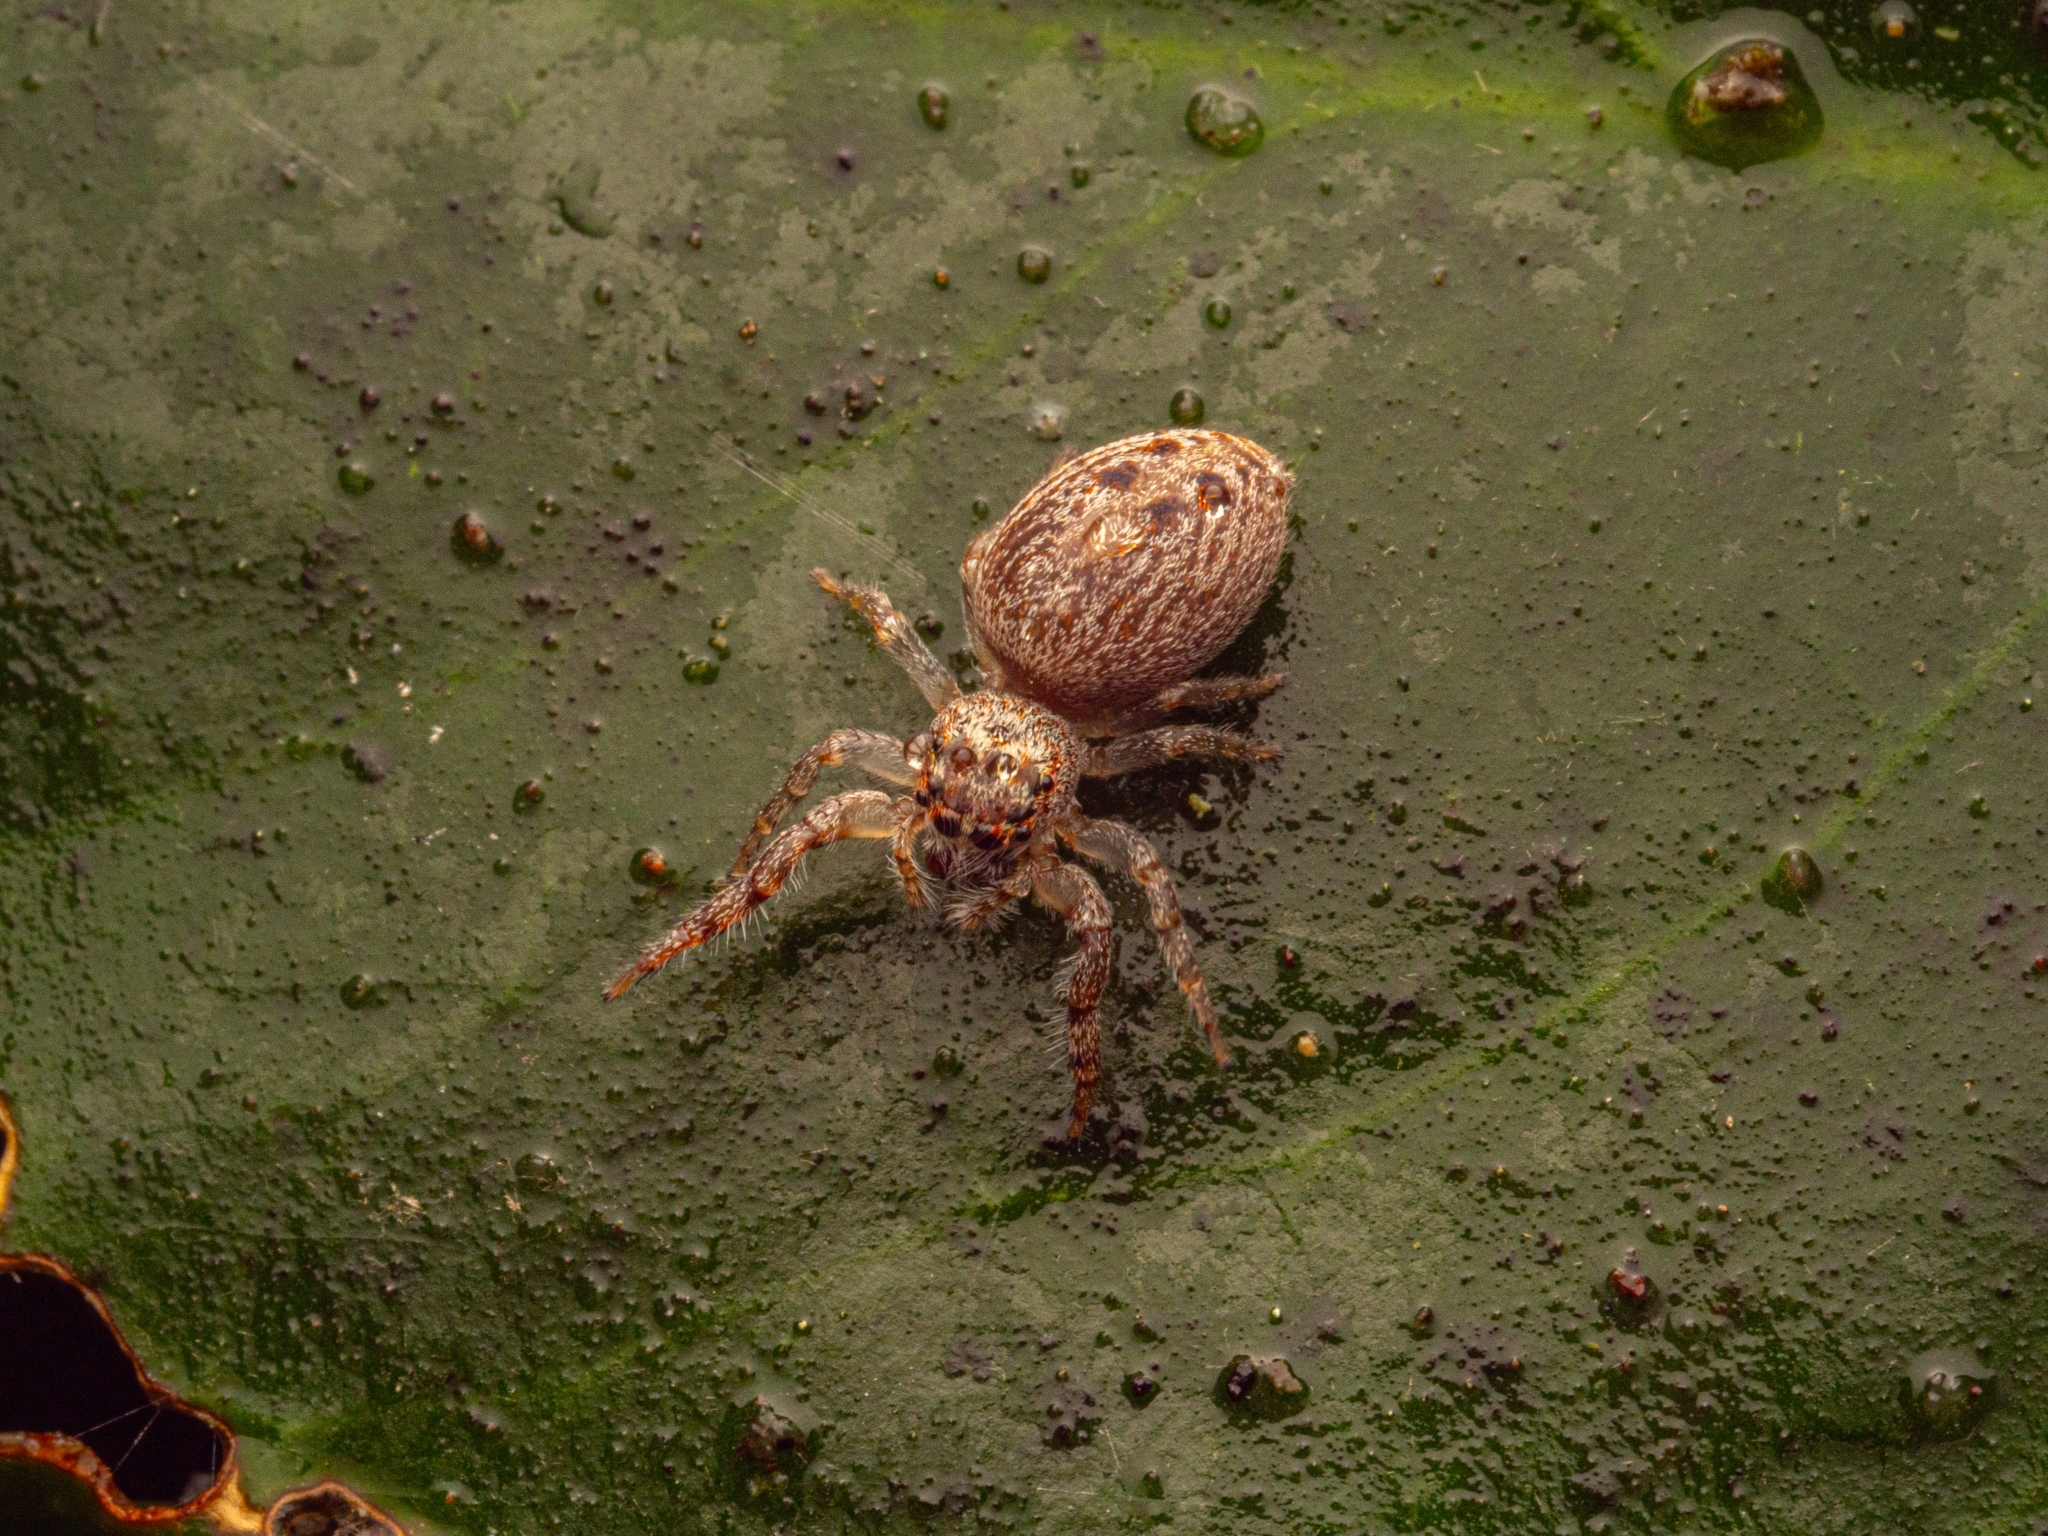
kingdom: Animalia
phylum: Arthropoda
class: Arachnida
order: Araneae
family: Salticidae
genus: Opisthoncus
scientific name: Opisthoncus polyphemus
